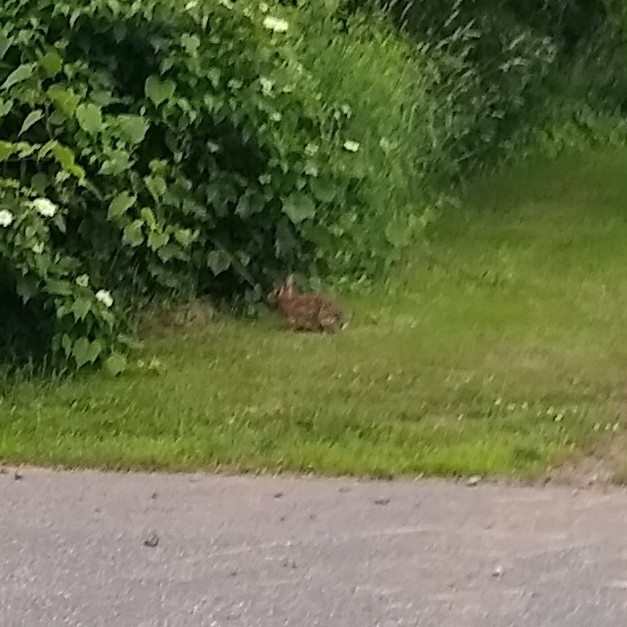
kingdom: Animalia
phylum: Chordata
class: Mammalia
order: Lagomorpha
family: Leporidae
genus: Sylvilagus
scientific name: Sylvilagus floridanus
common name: Eastern cottontail
